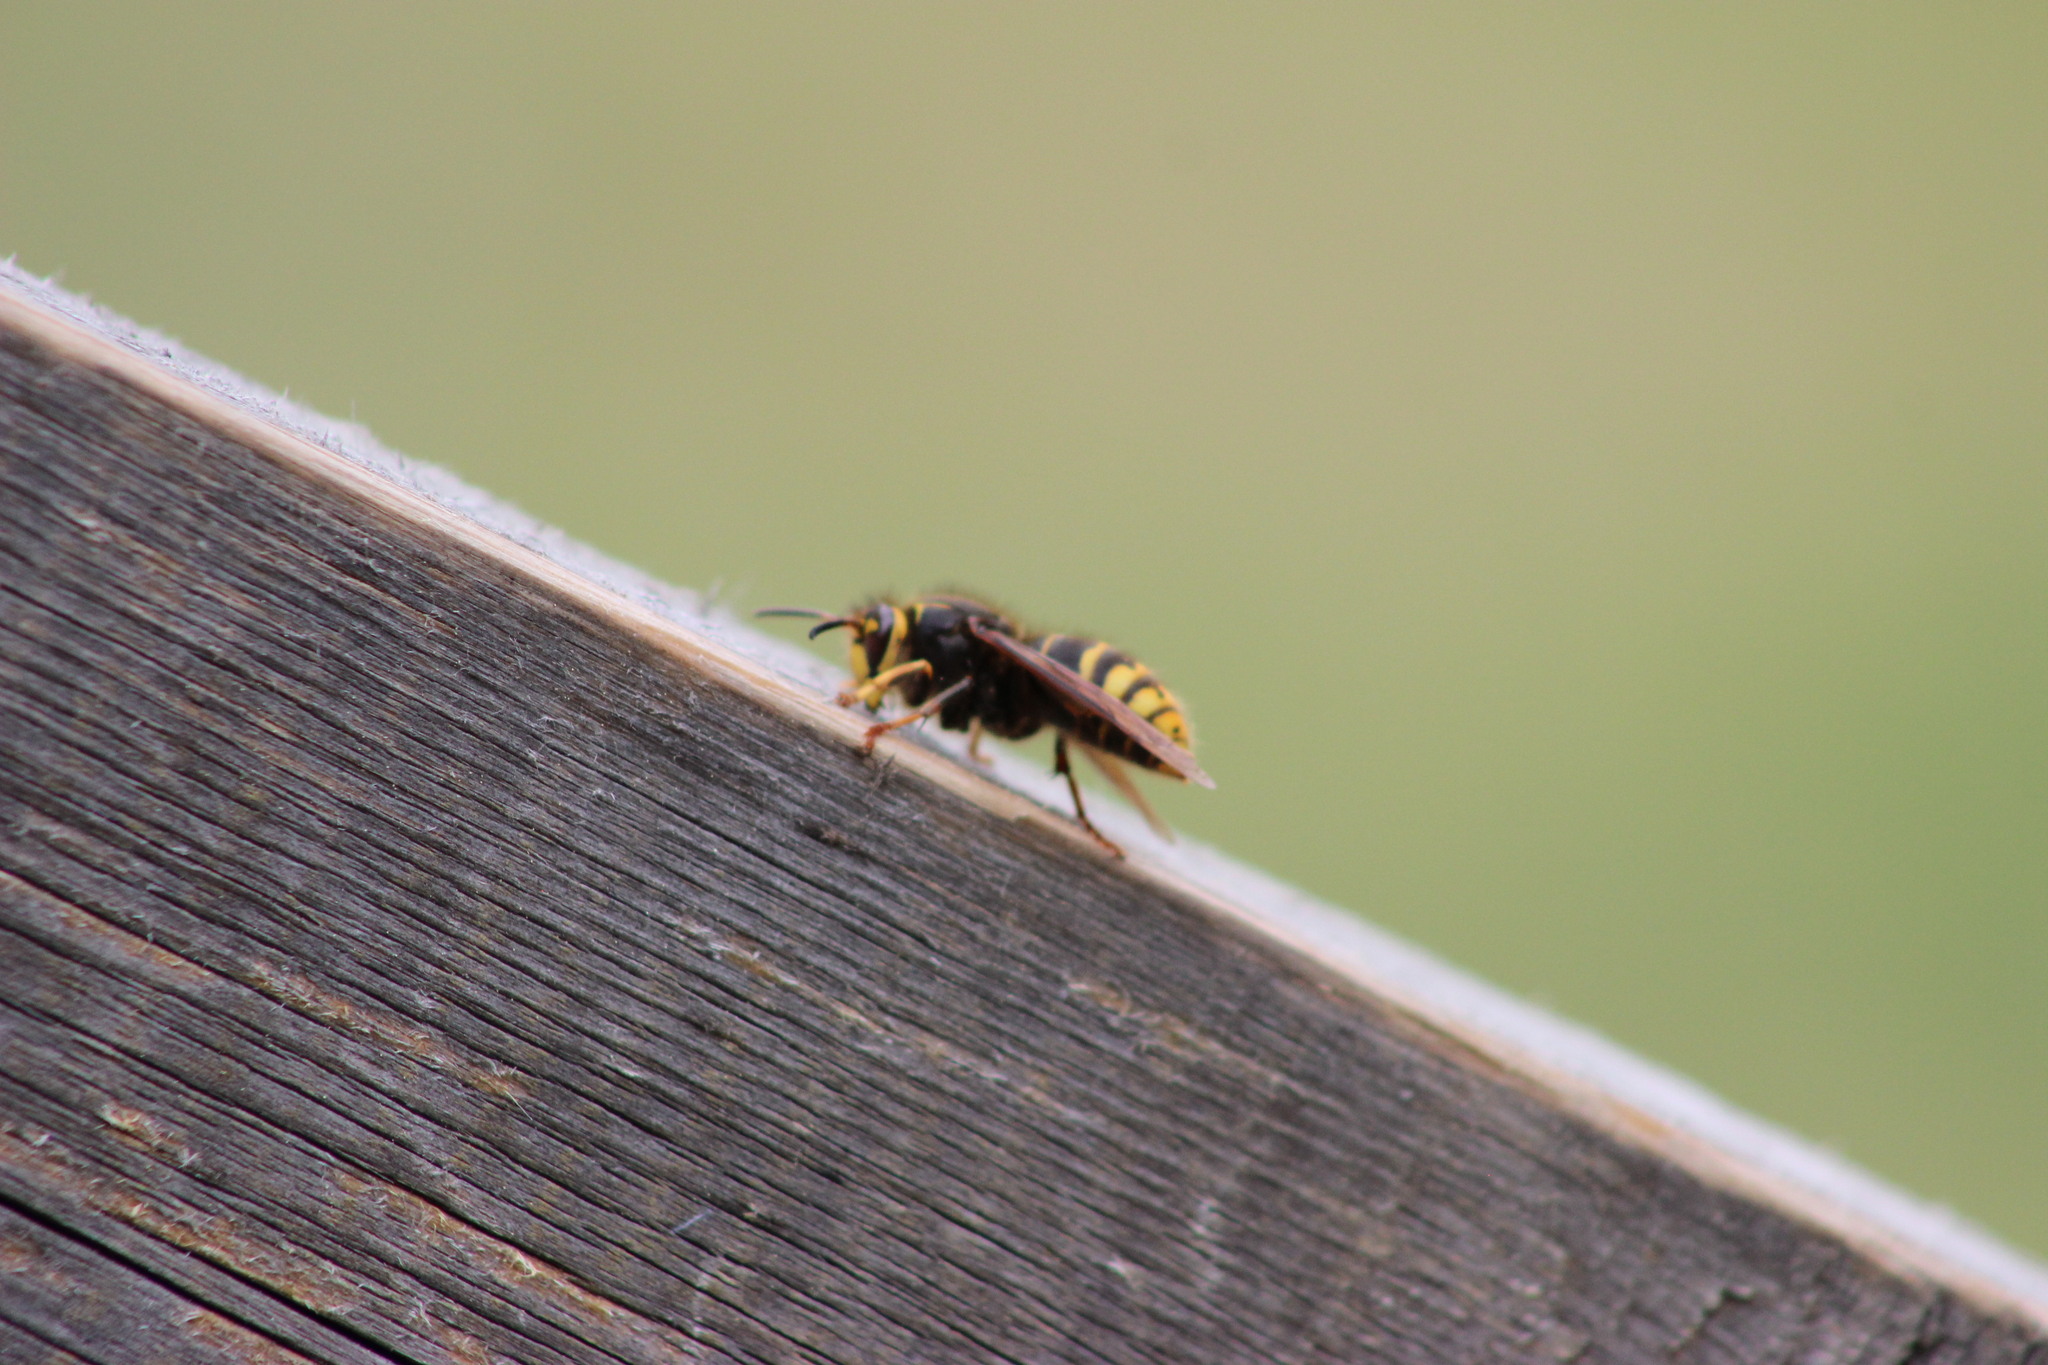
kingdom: Animalia
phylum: Arthropoda
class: Insecta
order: Hymenoptera
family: Vespidae
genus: Vespa
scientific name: Vespa crabro
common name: Hornet
